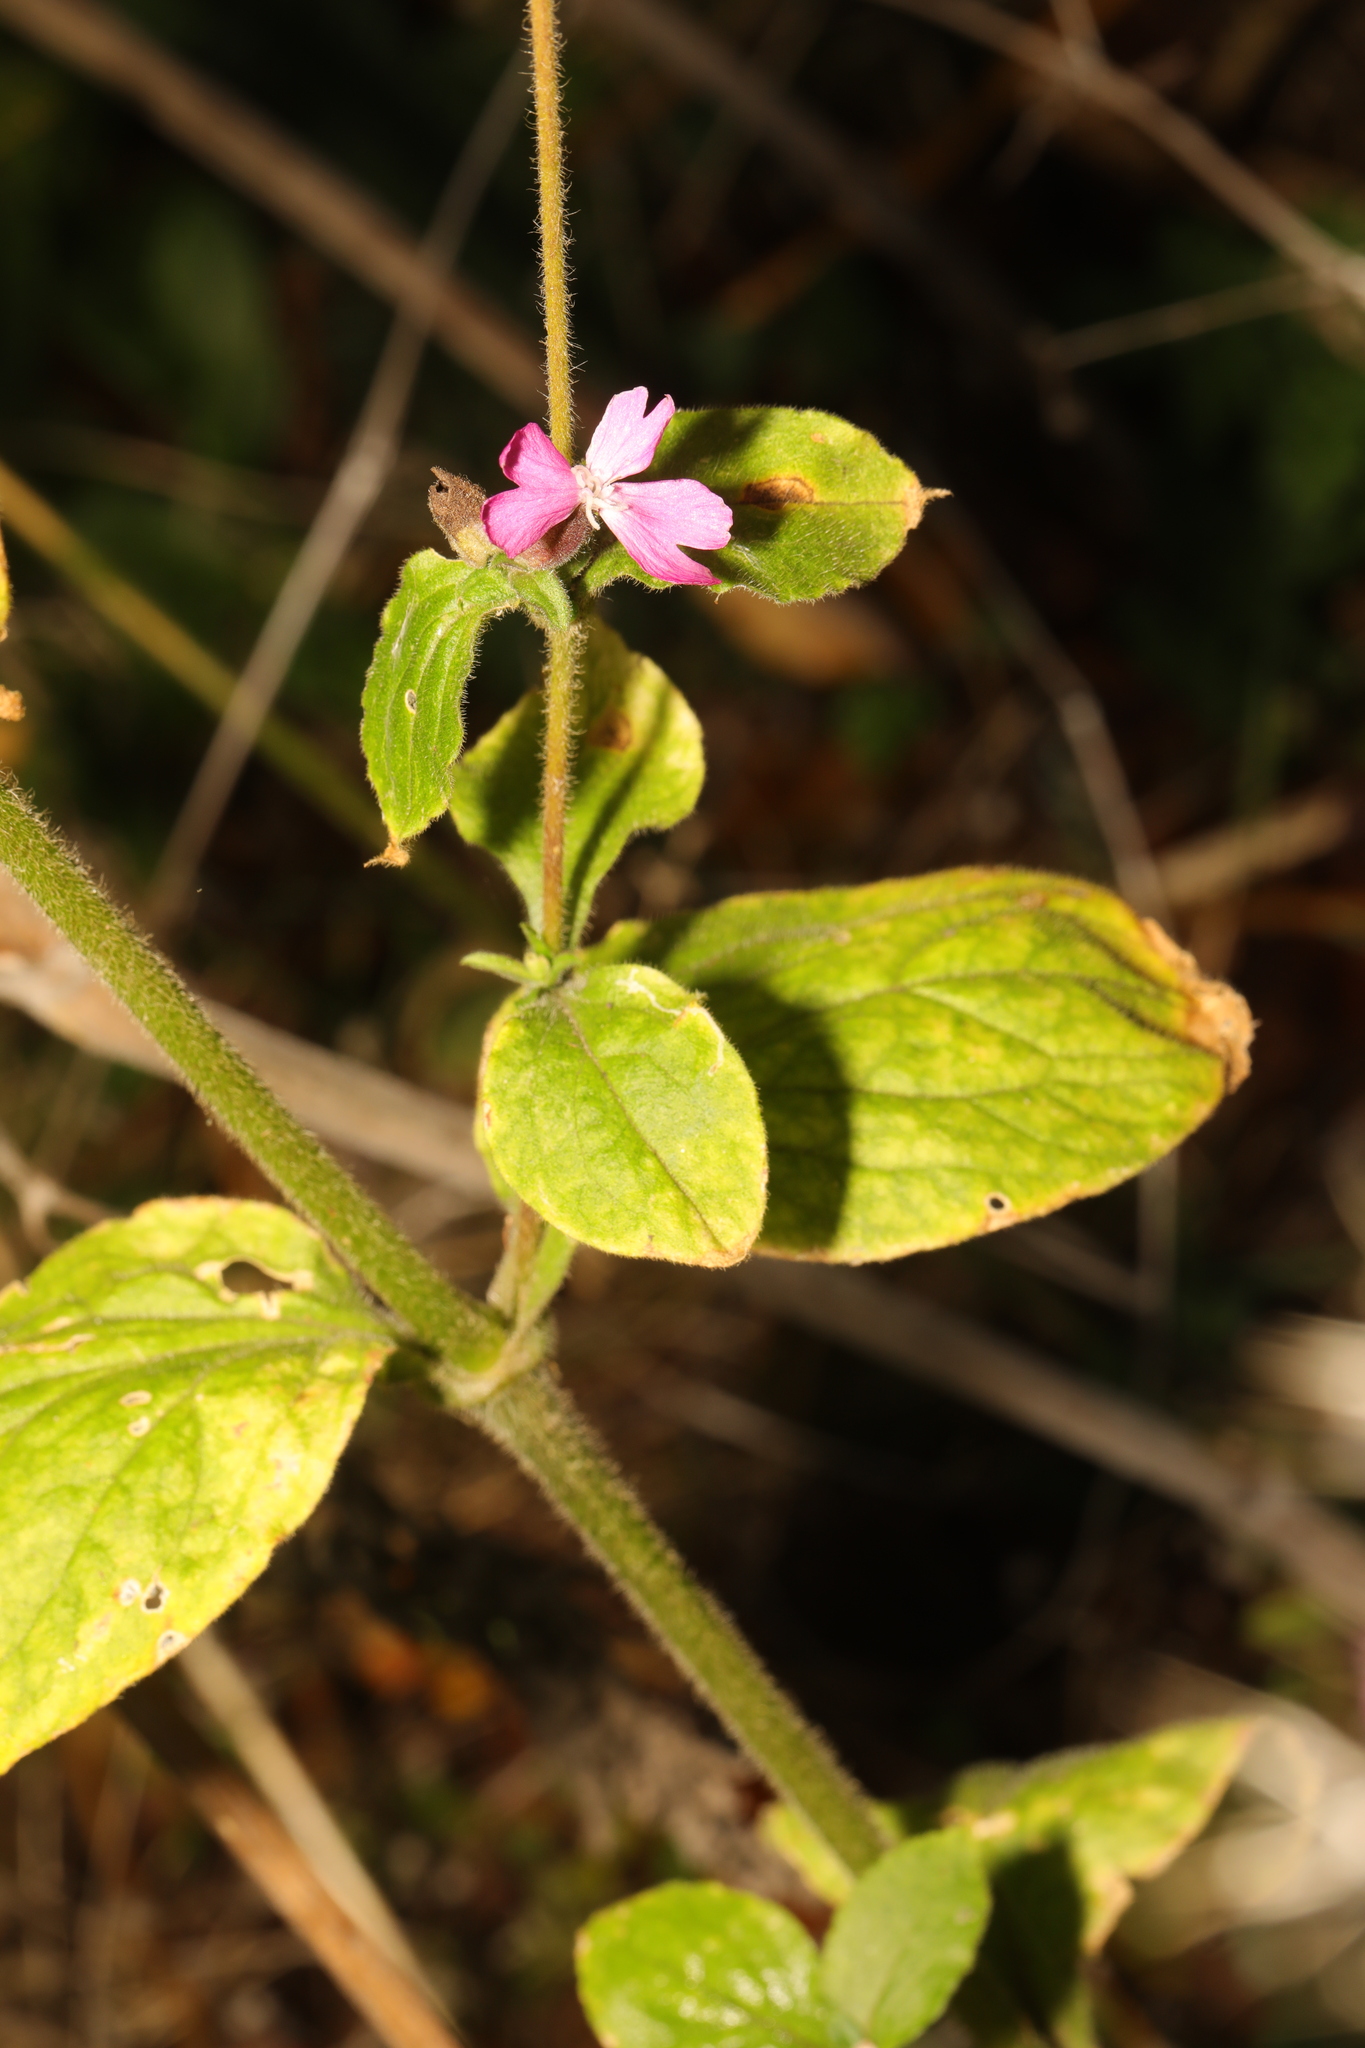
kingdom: Plantae
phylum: Tracheophyta
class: Magnoliopsida
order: Caryophyllales
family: Caryophyllaceae
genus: Silene
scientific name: Silene dioica
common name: Red campion
